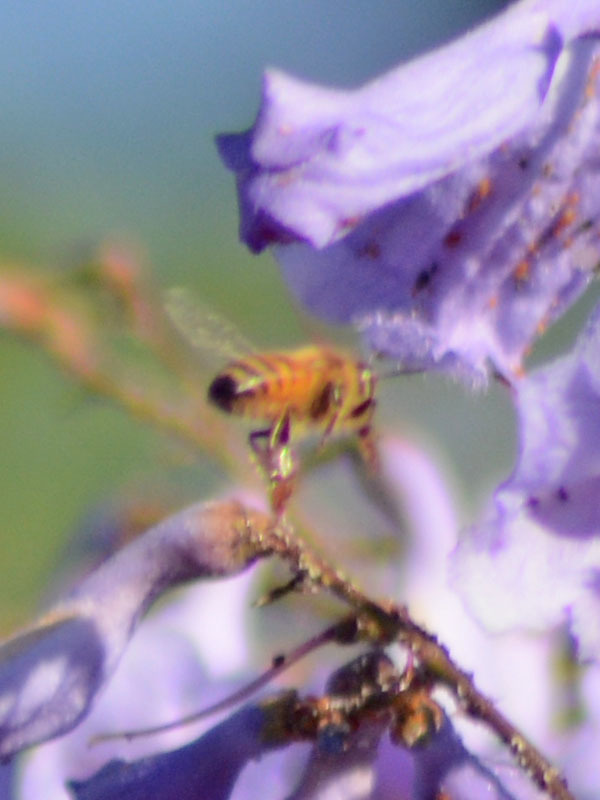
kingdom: Animalia
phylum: Arthropoda
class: Insecta
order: Hymenoptera
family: Apidae
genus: Apis
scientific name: Apis mellifera
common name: Honey bee
